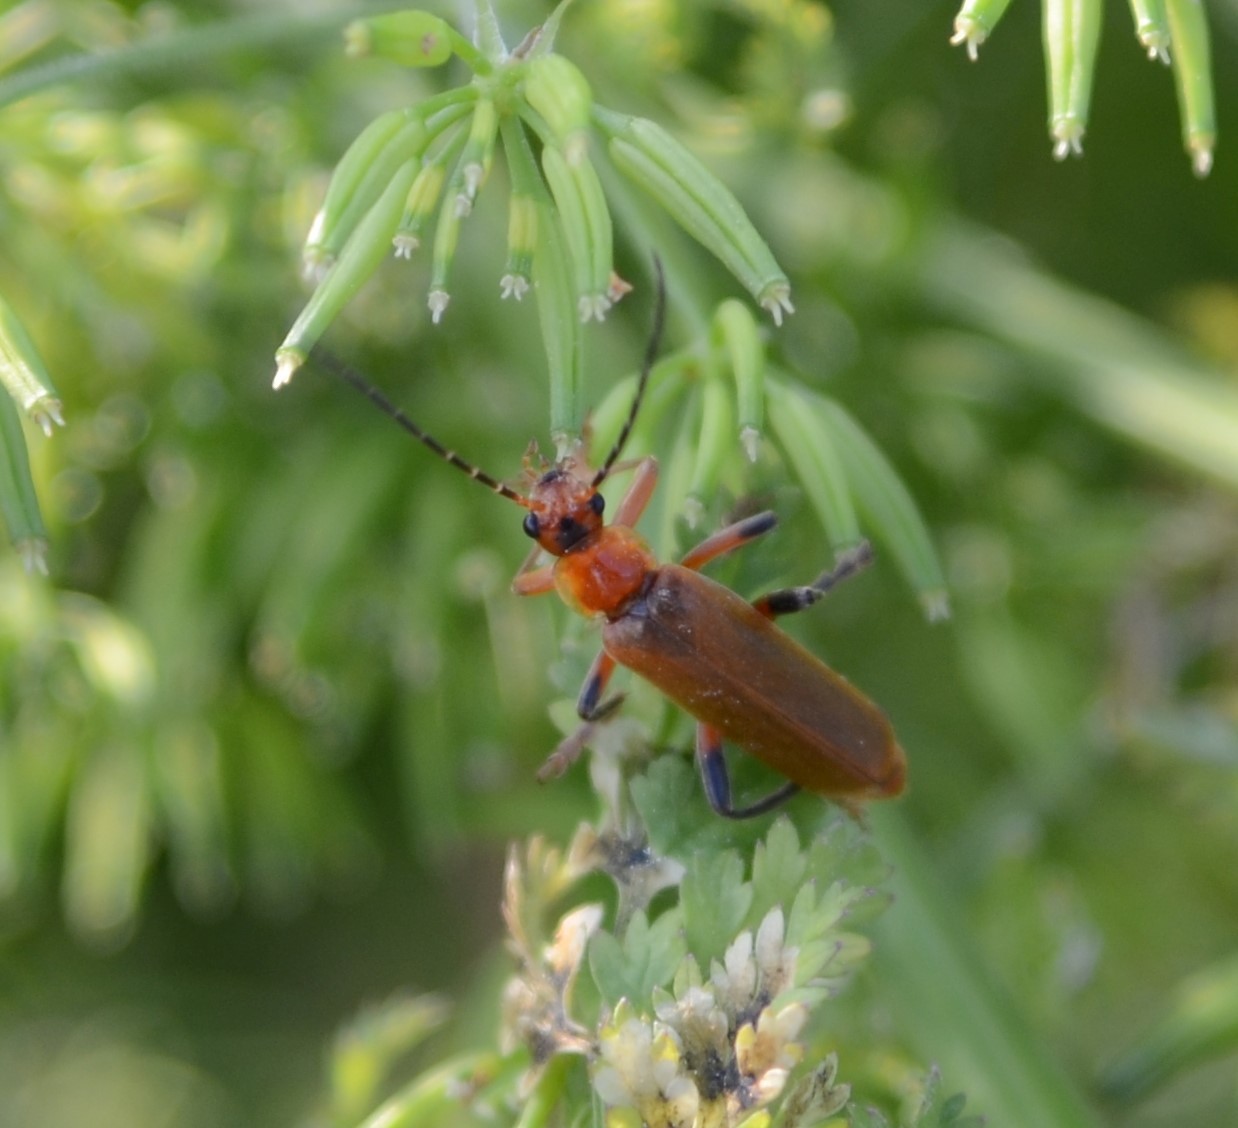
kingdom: Animalia
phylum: Arthropoda
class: Insecta
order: Coleoptera
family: Cantharidae
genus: Cantharis
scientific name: Cantharis livida
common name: Livid soldier beetle
